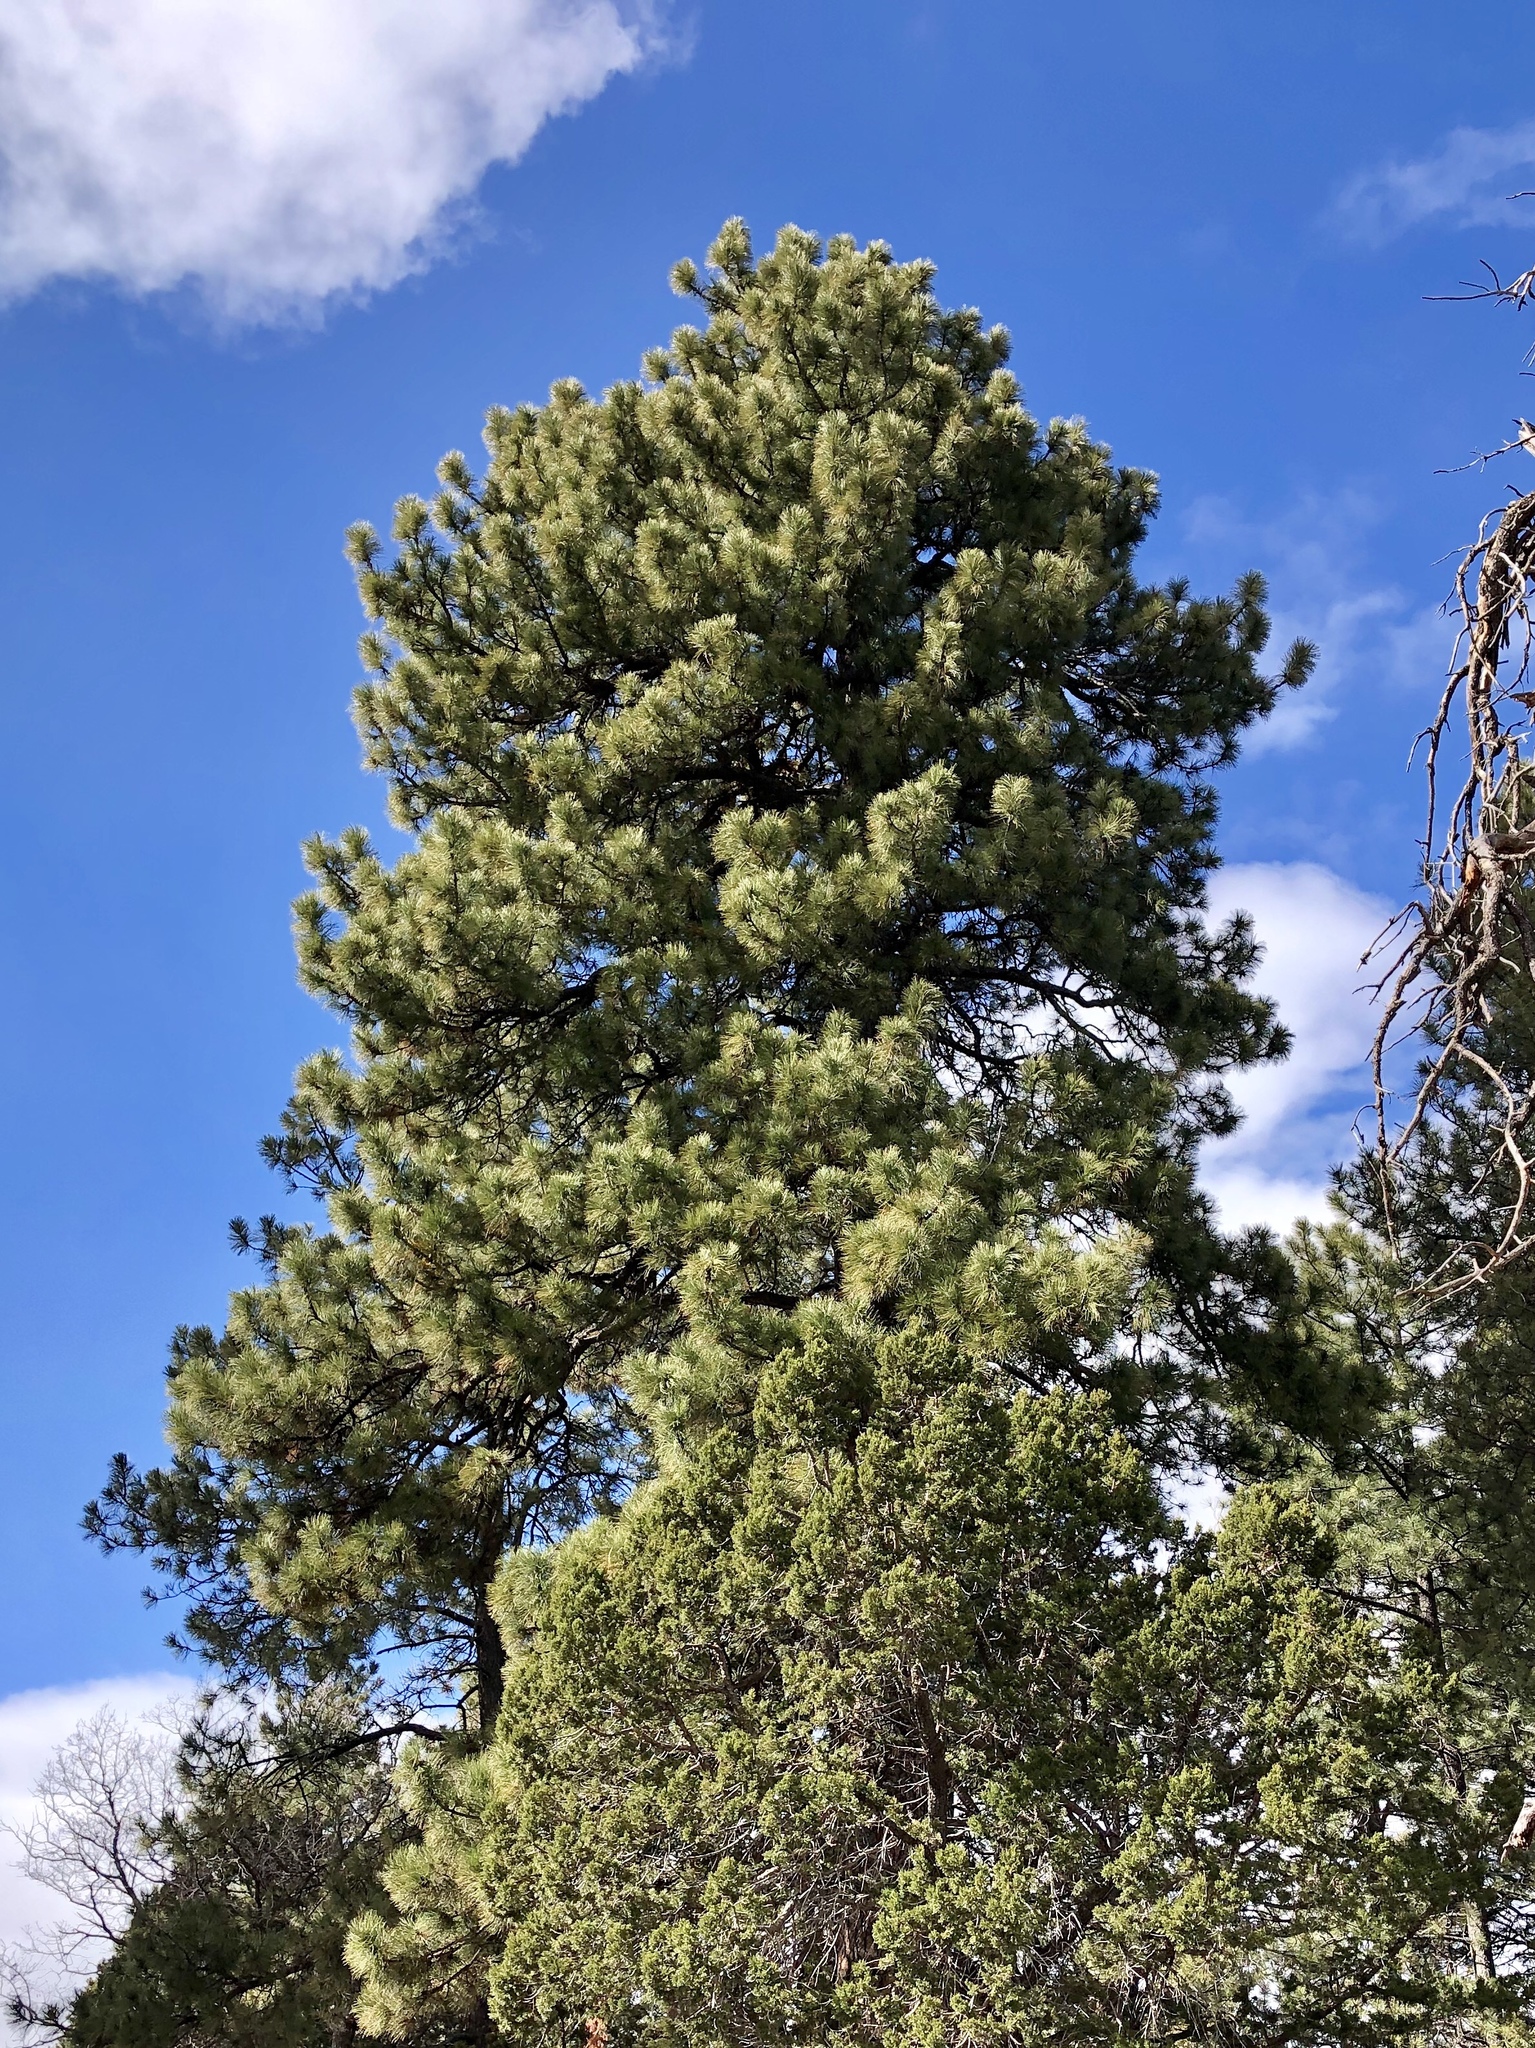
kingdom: Plantae
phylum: Tracheophyta
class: Pinopsida
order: Pinales
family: Pinaceae
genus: Pinus
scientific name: Pinus ponderosa
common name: Western yellow-pine
